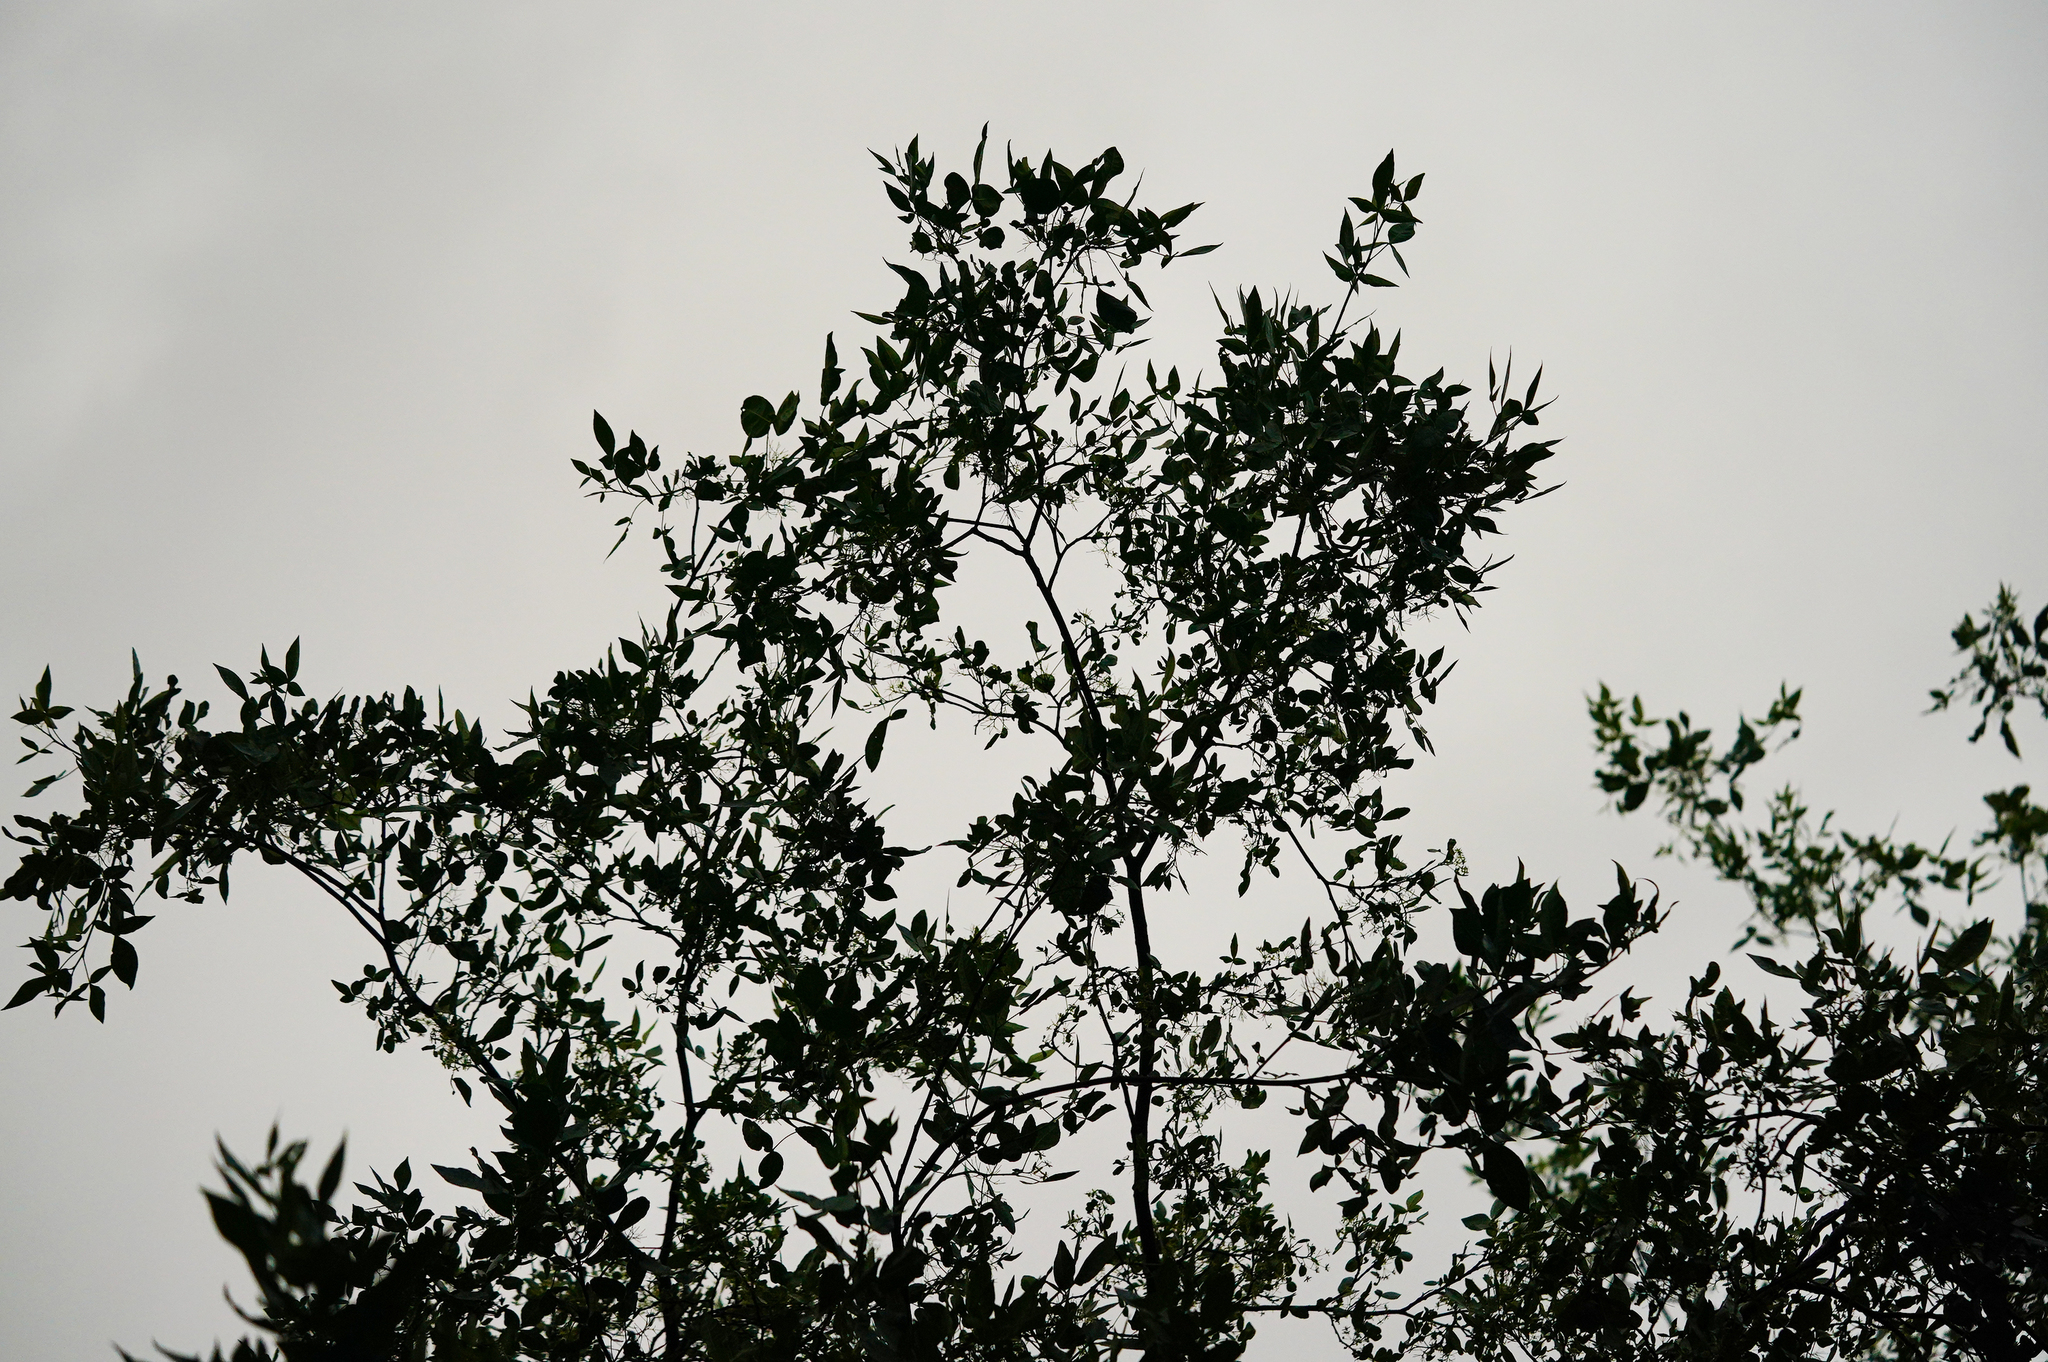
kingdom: Plantae
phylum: Tracheophyta
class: Magnoliopsida
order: Sapindales
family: Rutaceae
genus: Ptelea
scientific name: Ptelea crenulata
